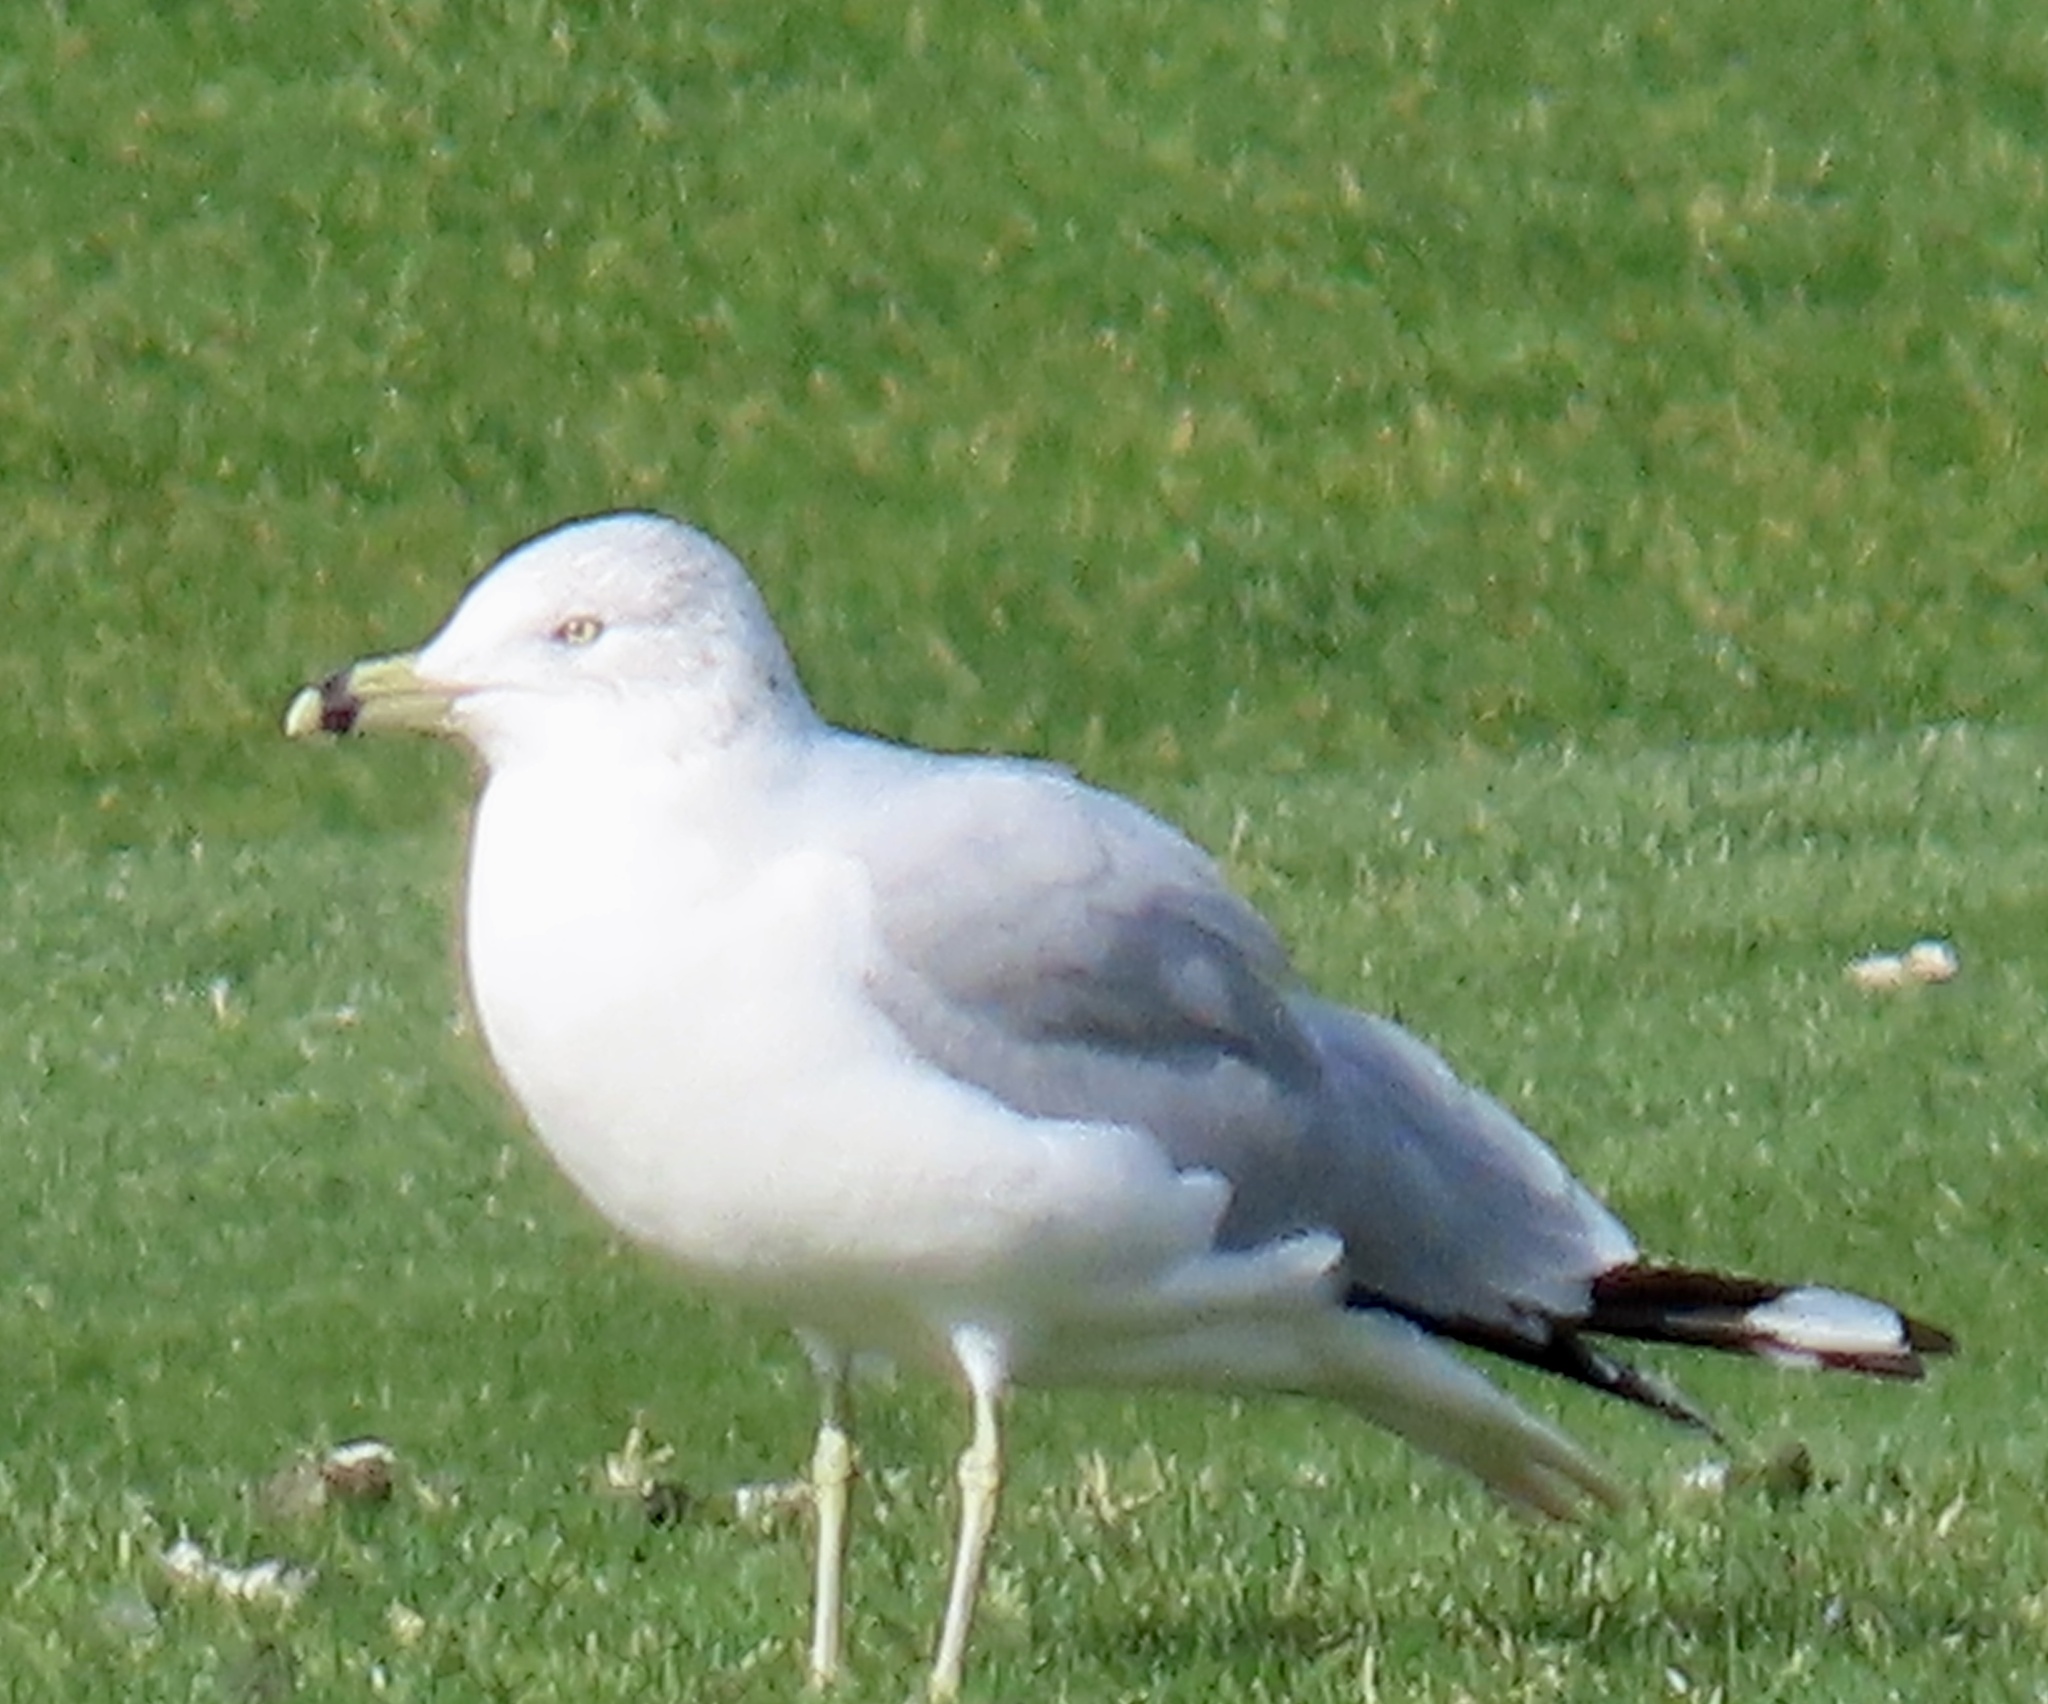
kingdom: Animalia
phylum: Chordata
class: Aves
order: Charadriiformes
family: Laridae
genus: Larus
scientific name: Larus delawarensis
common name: Ring-billed gull
